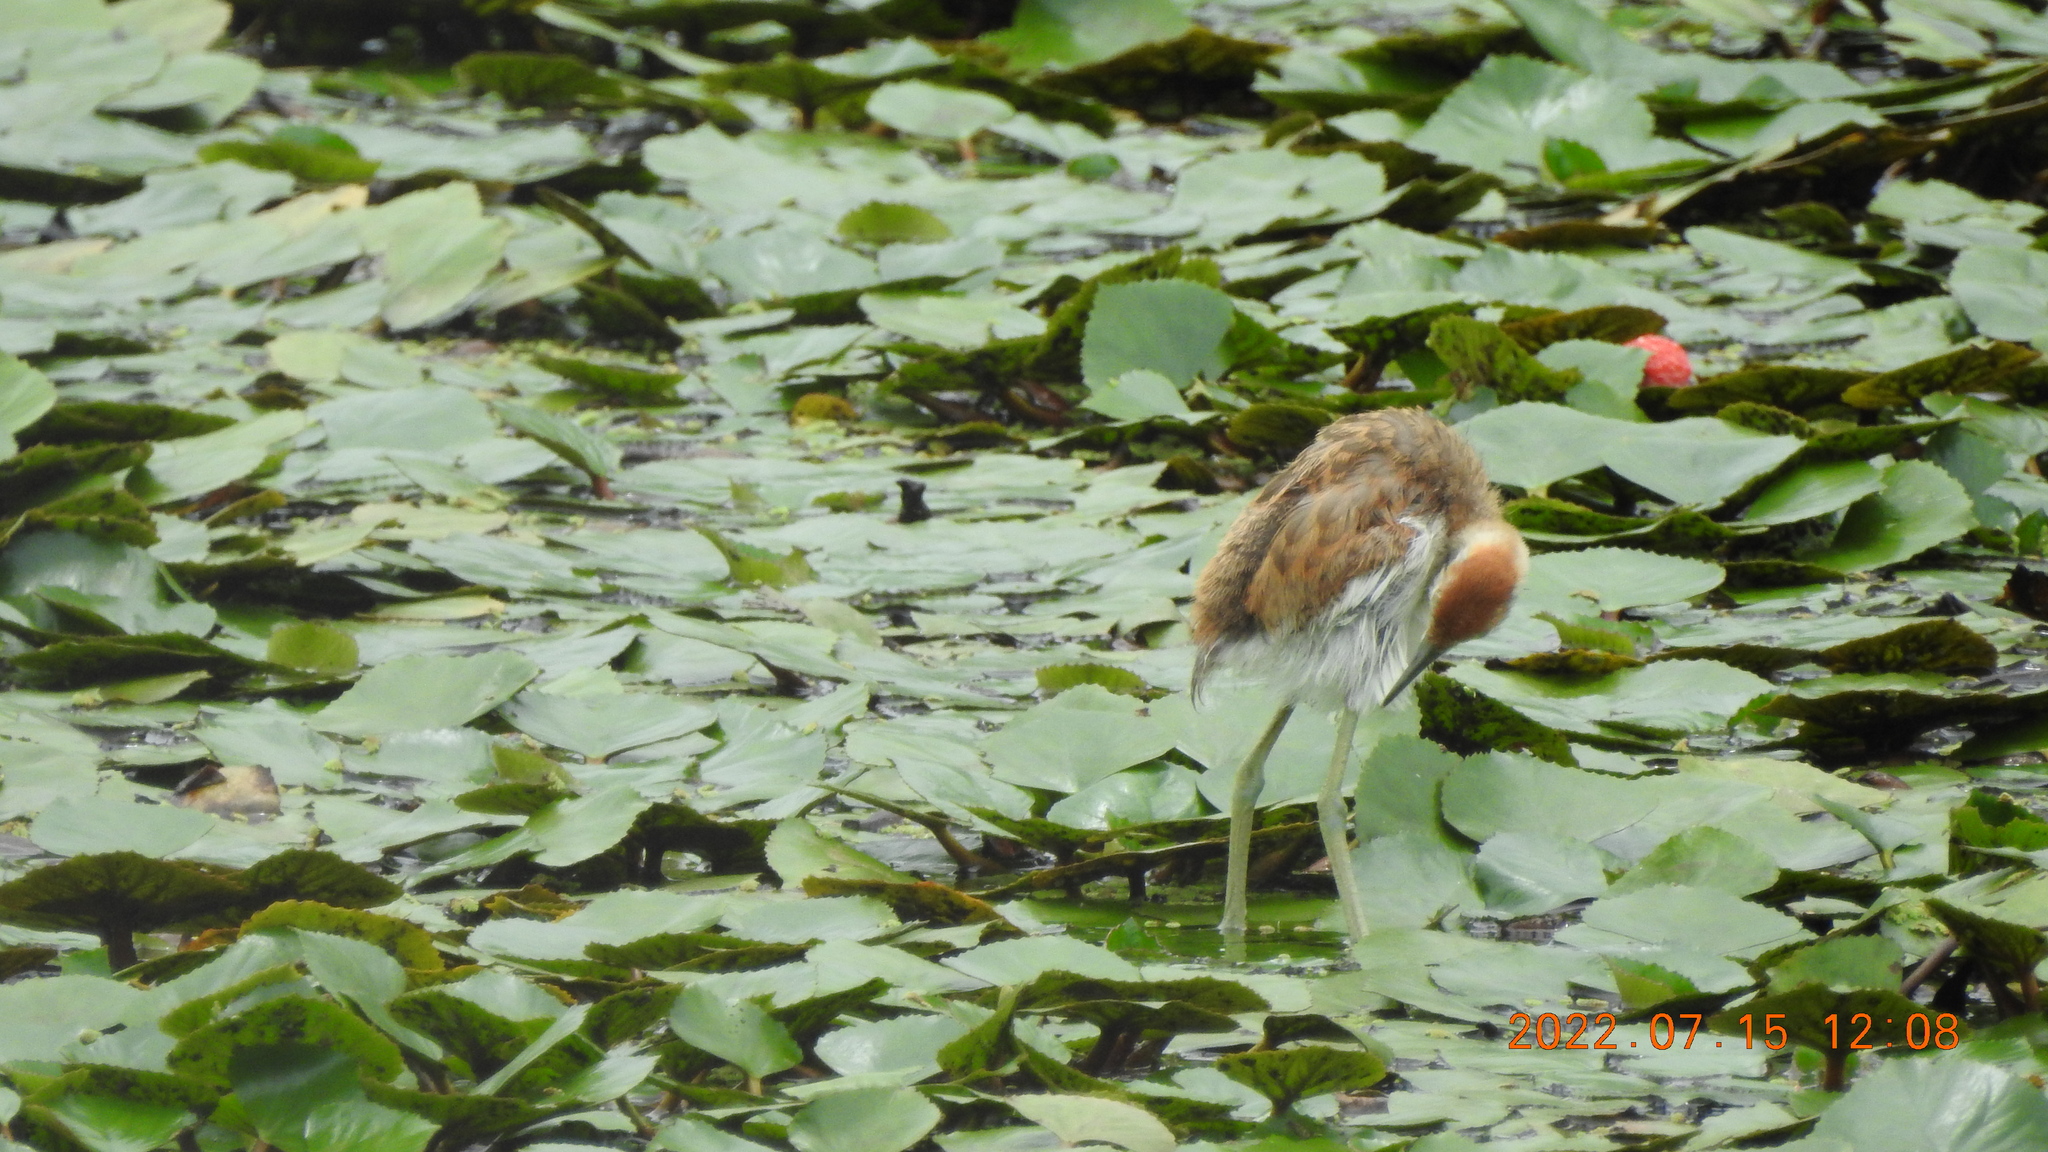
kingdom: Animalia
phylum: Chordata
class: Aves
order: Charadriiformes
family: Jacanidae
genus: Hydrophasianus
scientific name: Hydrophasianus chirurgus
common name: Pheasant-tailed jacana
